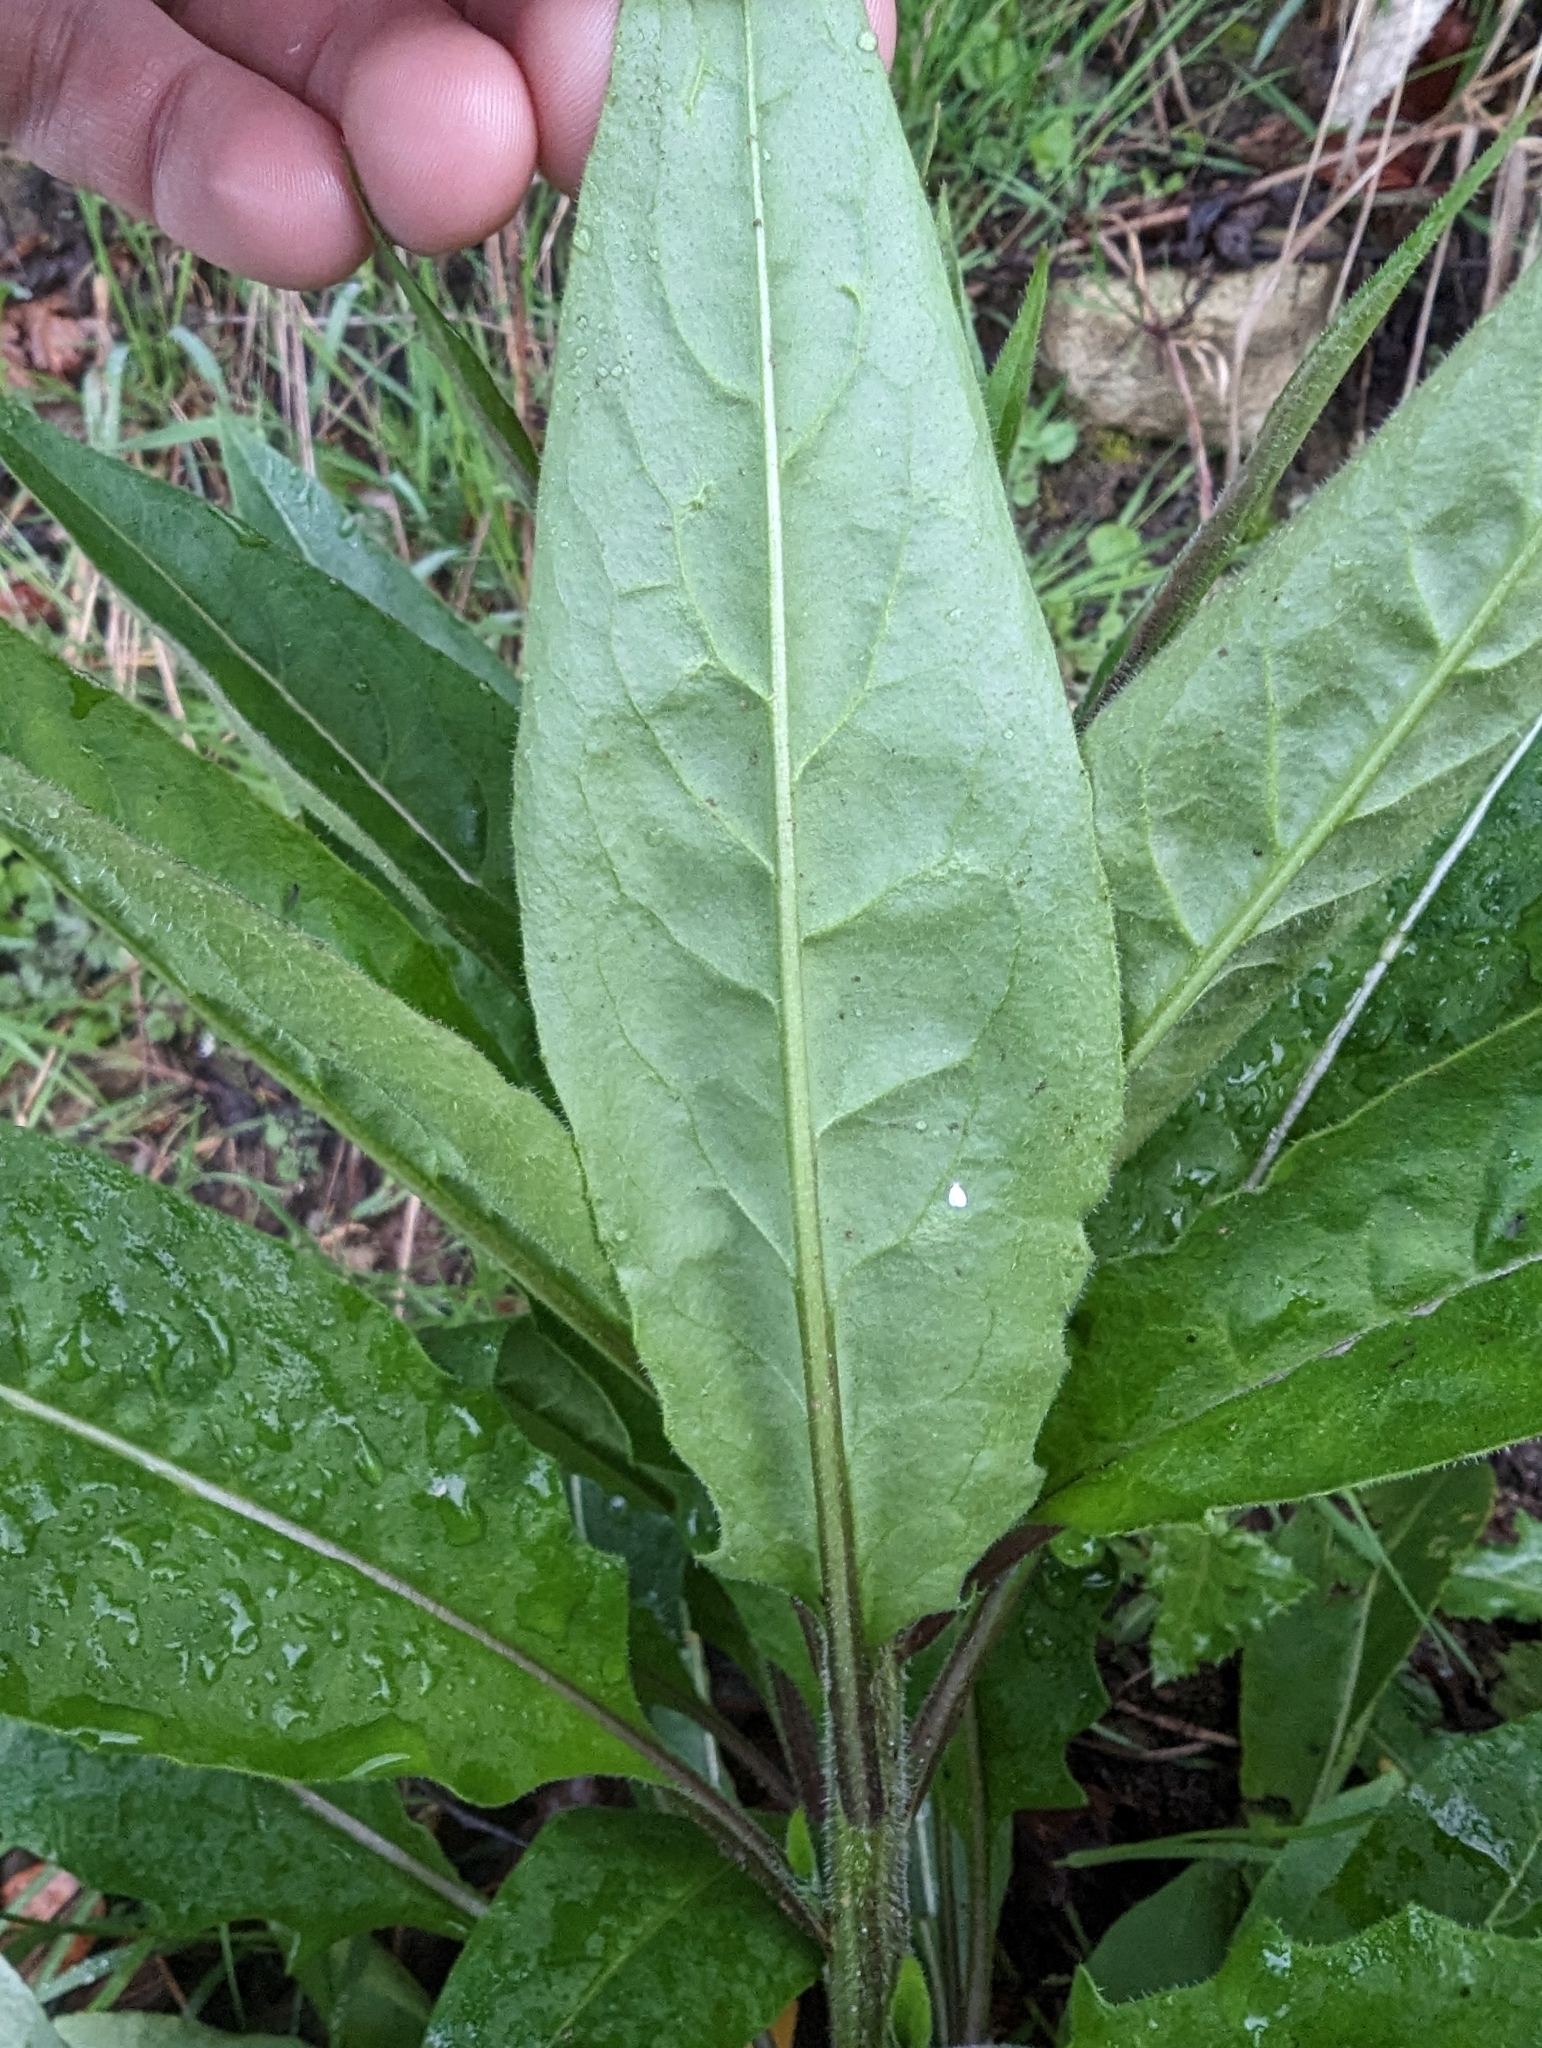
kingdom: Plantae
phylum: Tracheophyta
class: Magnoliopsida
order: Brassicales
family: Brassicaceae
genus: Hesperis
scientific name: Hesperis matronalis
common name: Dame's-violet
